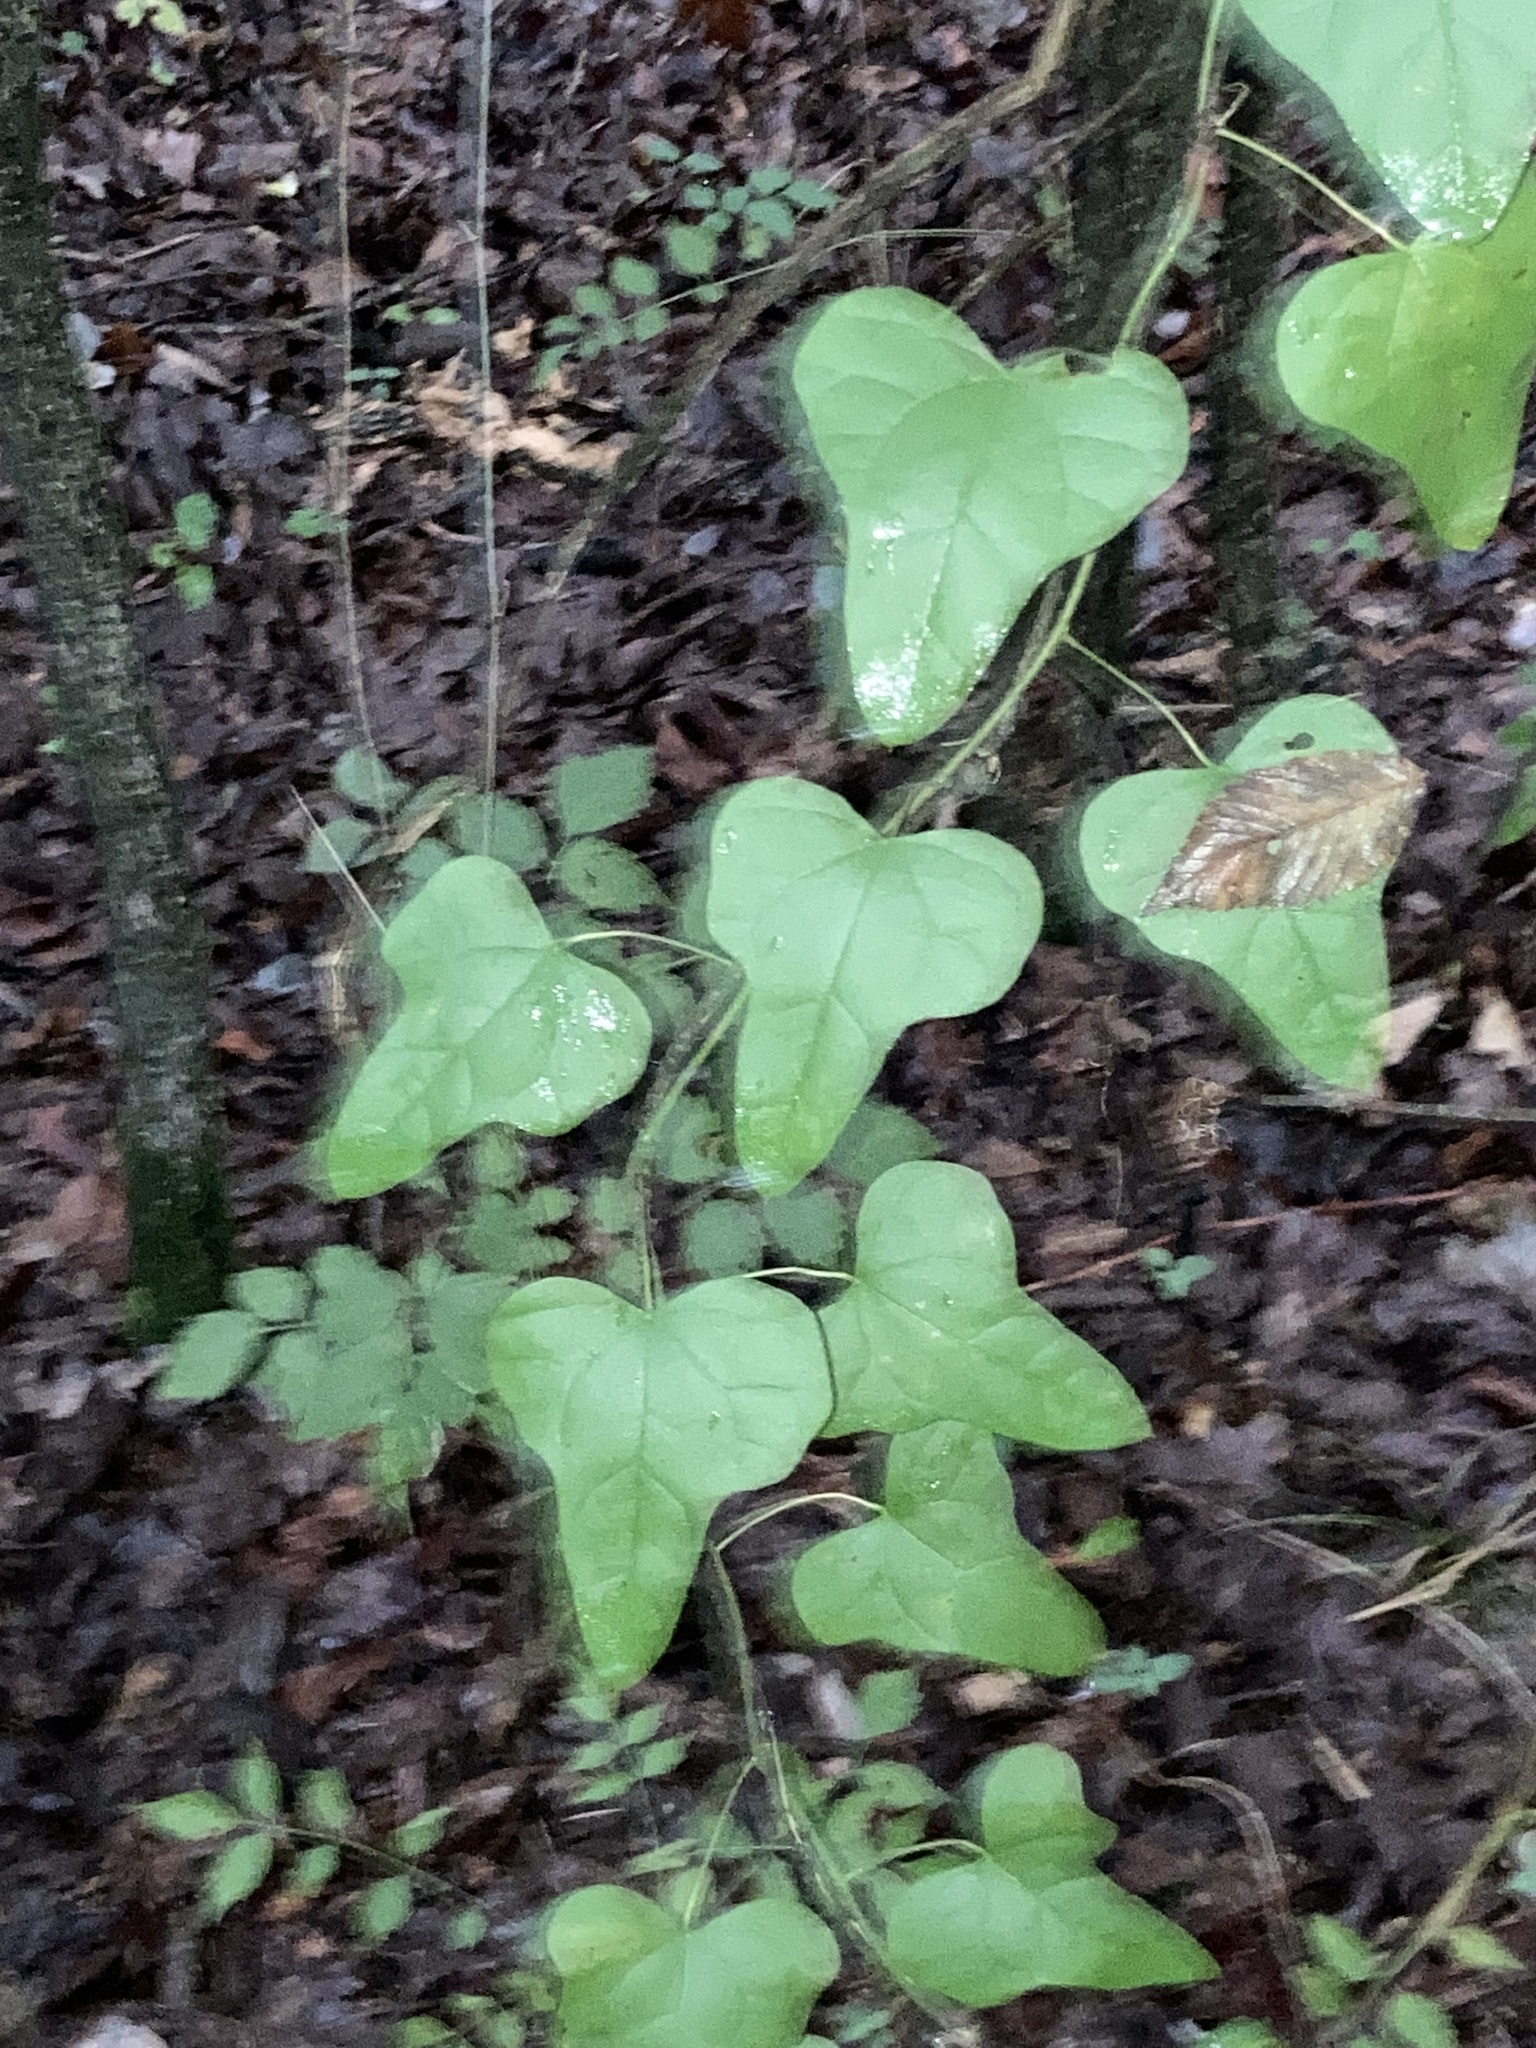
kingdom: Plantae
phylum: Tracheophyta
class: Magnoliopsida
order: Ranunculales
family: Menispermaceae
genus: Cocculus
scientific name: Cocculus carolinus
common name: Carolina moonseed
